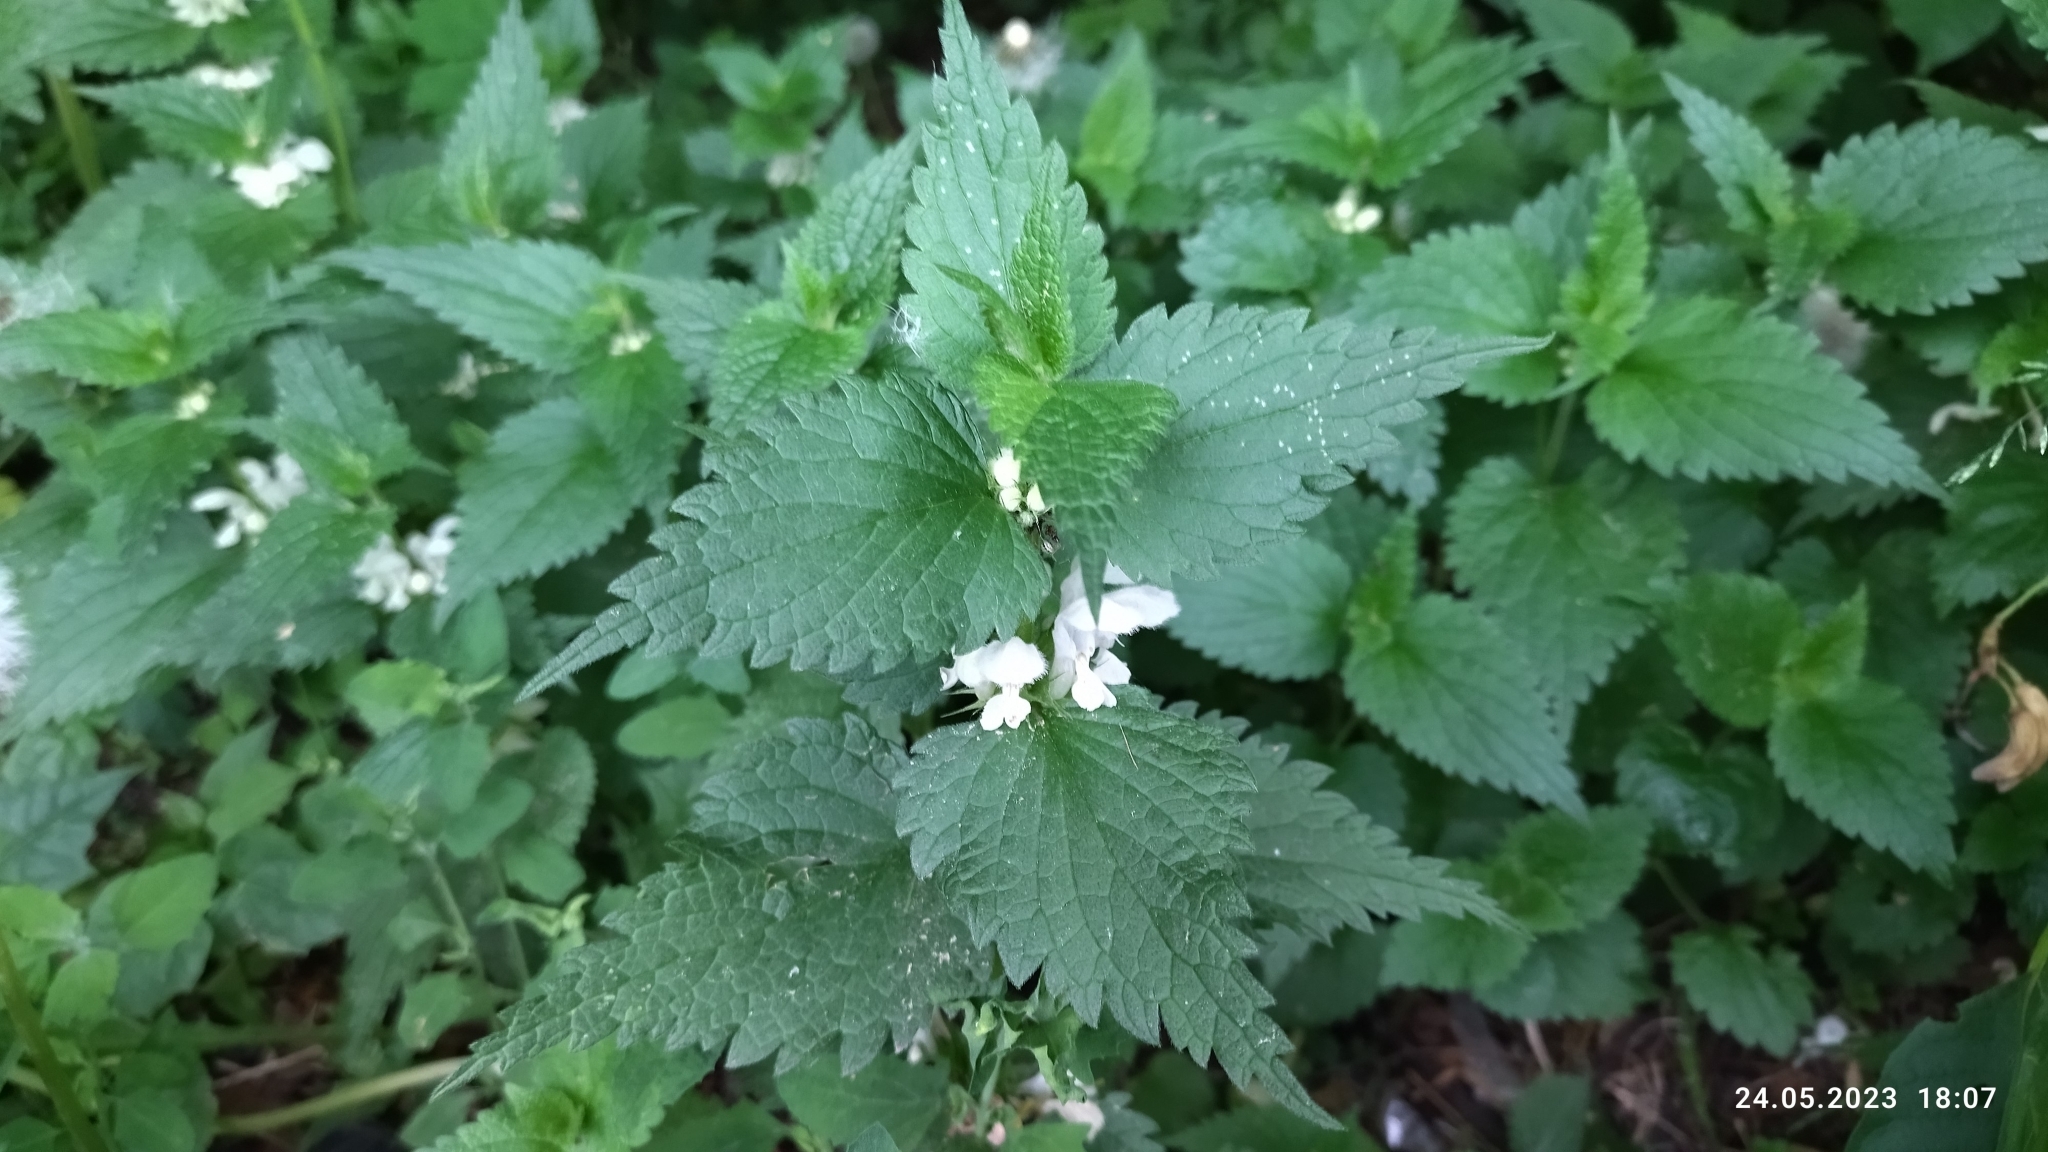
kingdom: Plantae
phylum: Tracheophyta
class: Magnoliopsida
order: Lamiales
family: Lamiaceae
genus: Lamium
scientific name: Lamium album
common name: White dead-nettle
